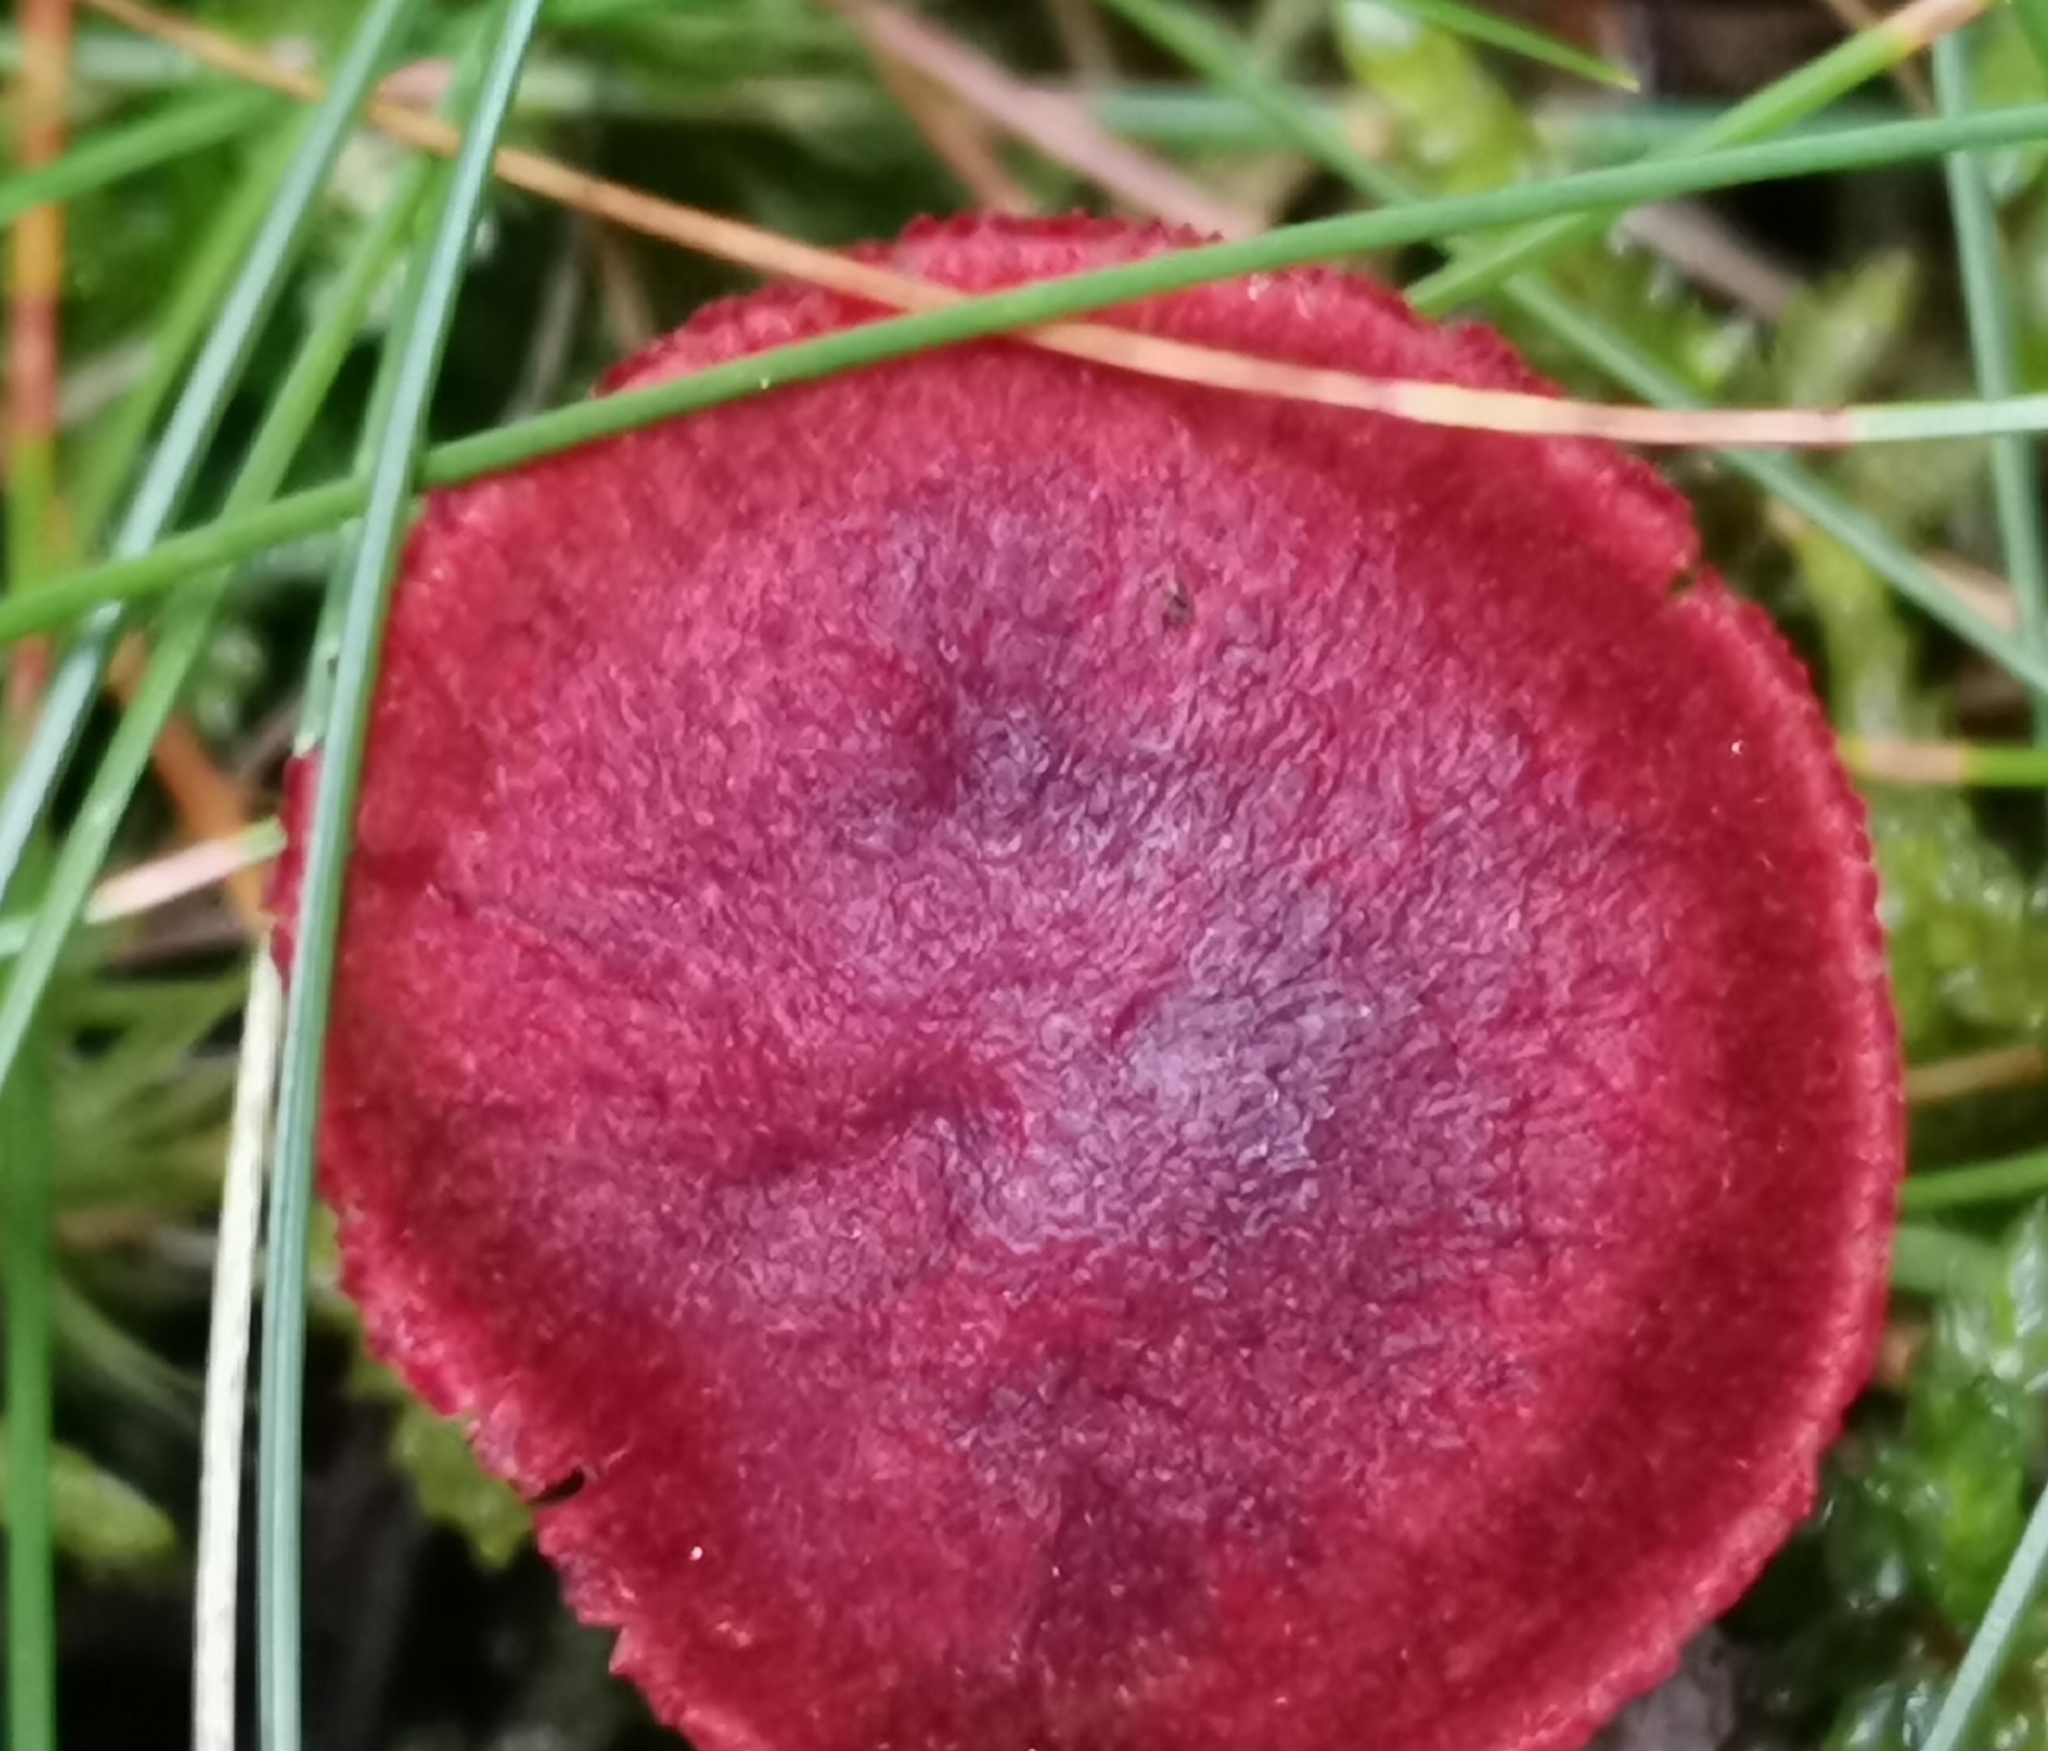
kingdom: Fungi
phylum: Basidiomycota
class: Agaricomycetes
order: Agaricales
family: Cortinariaceae
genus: Cortinarius
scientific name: Cortinarius sanguineus
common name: Bloodred webcap
